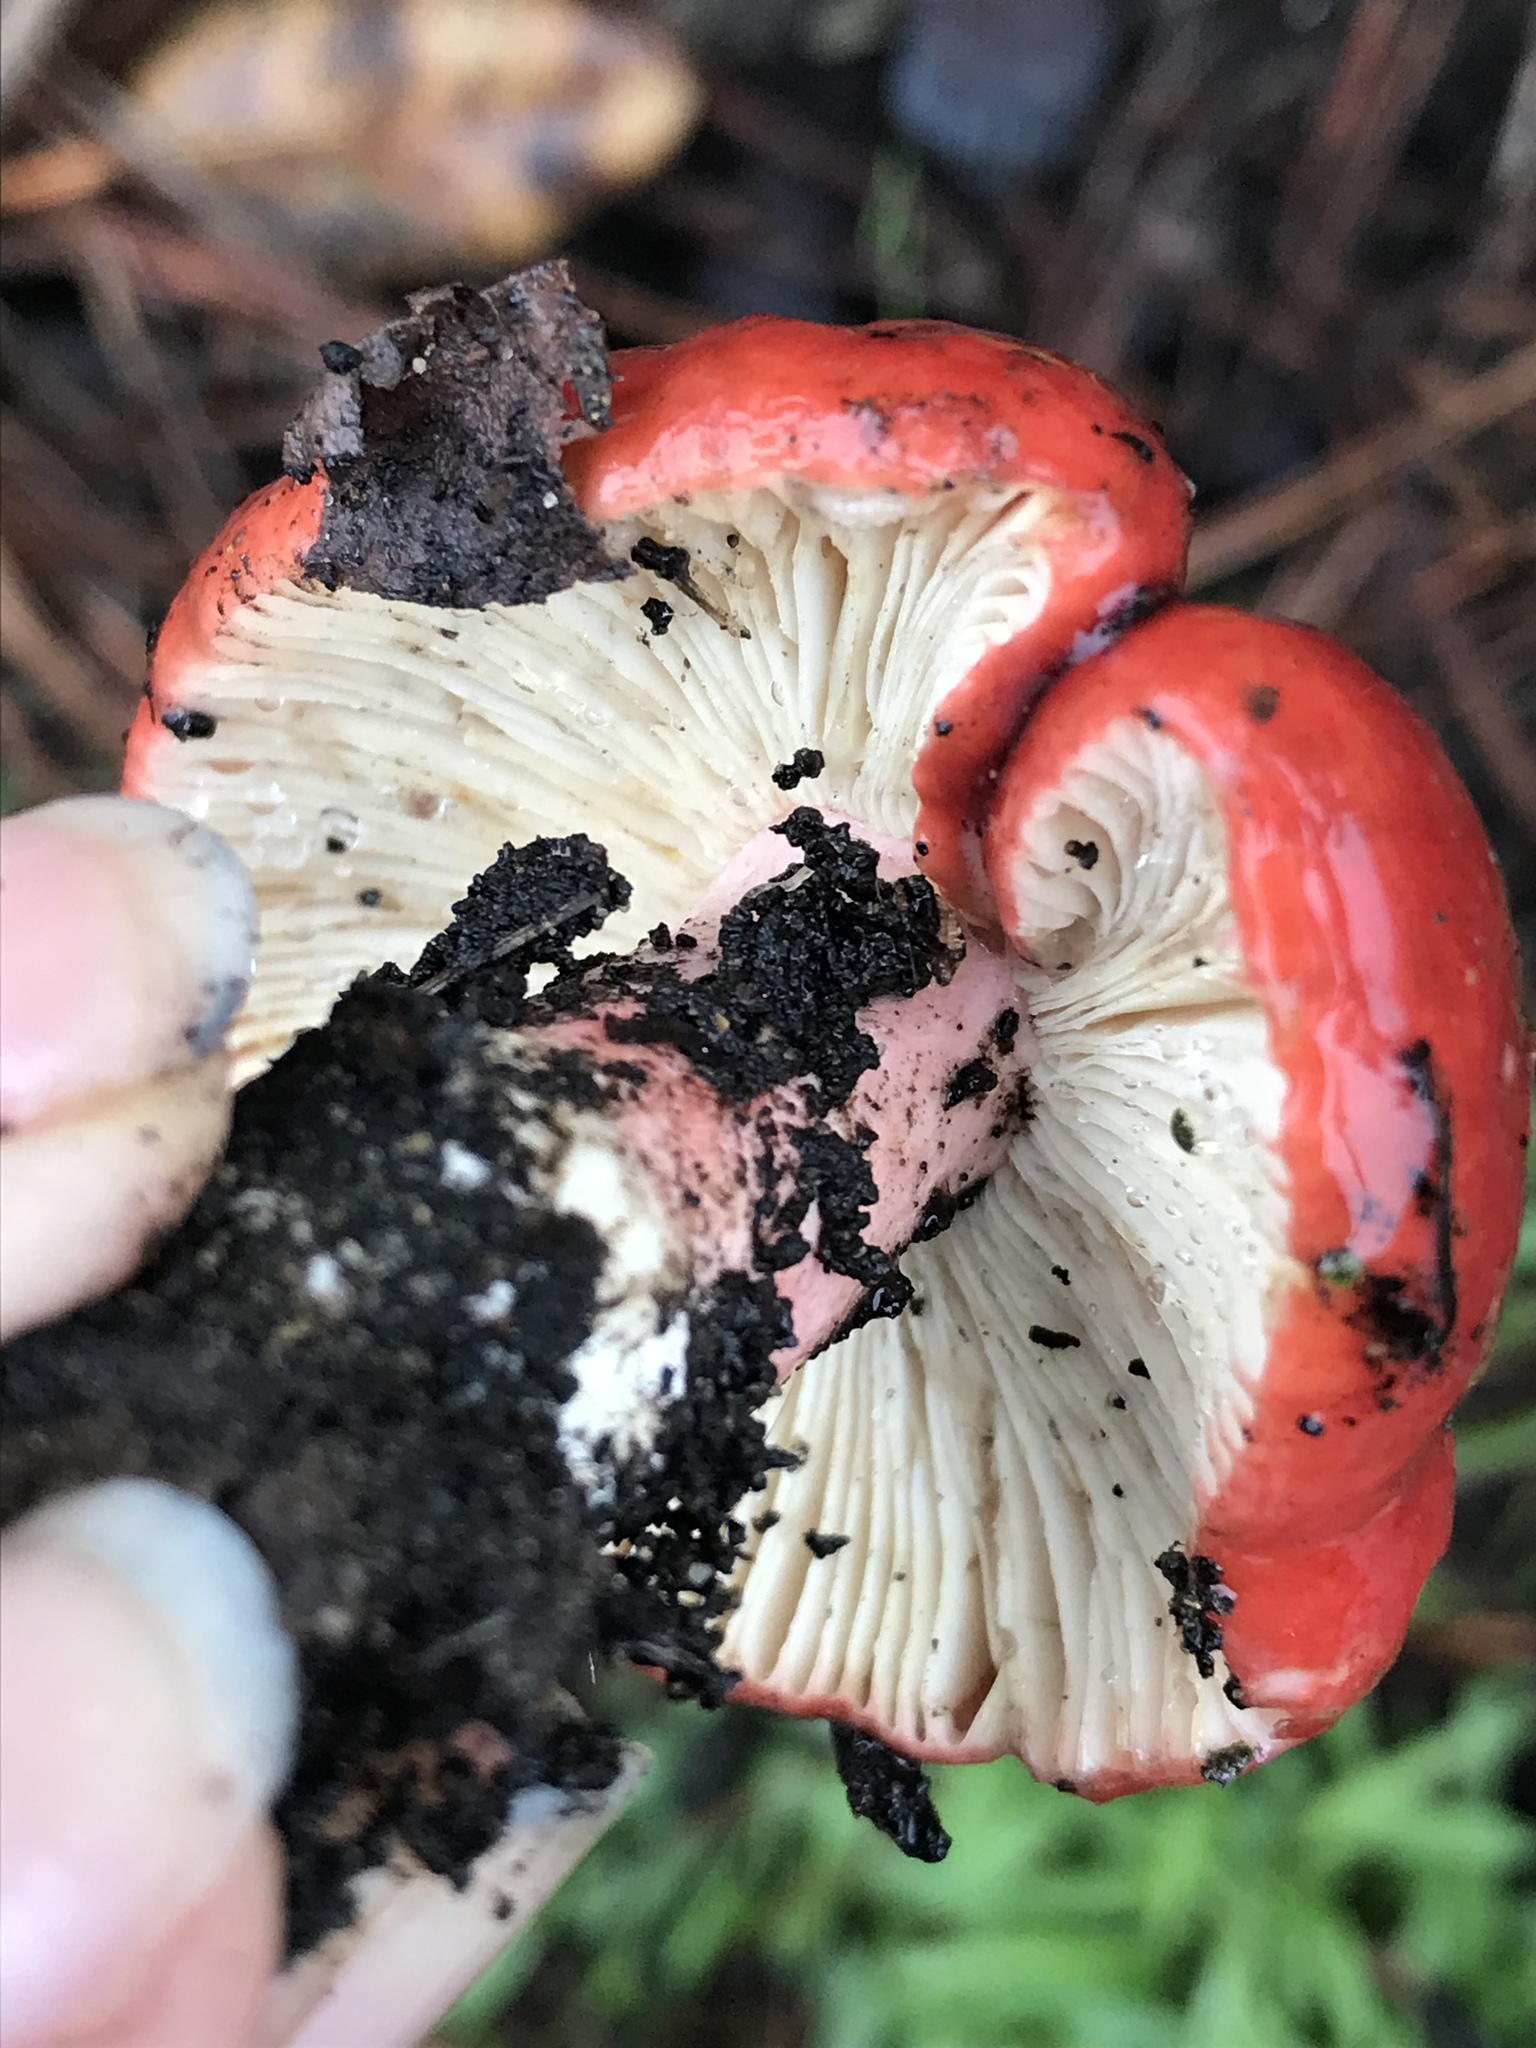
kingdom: Fungi
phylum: Basidiomycota
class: Agaricomycetes
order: Russulales
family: Russulaceae
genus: Russula
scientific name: Russula rhodocephala
